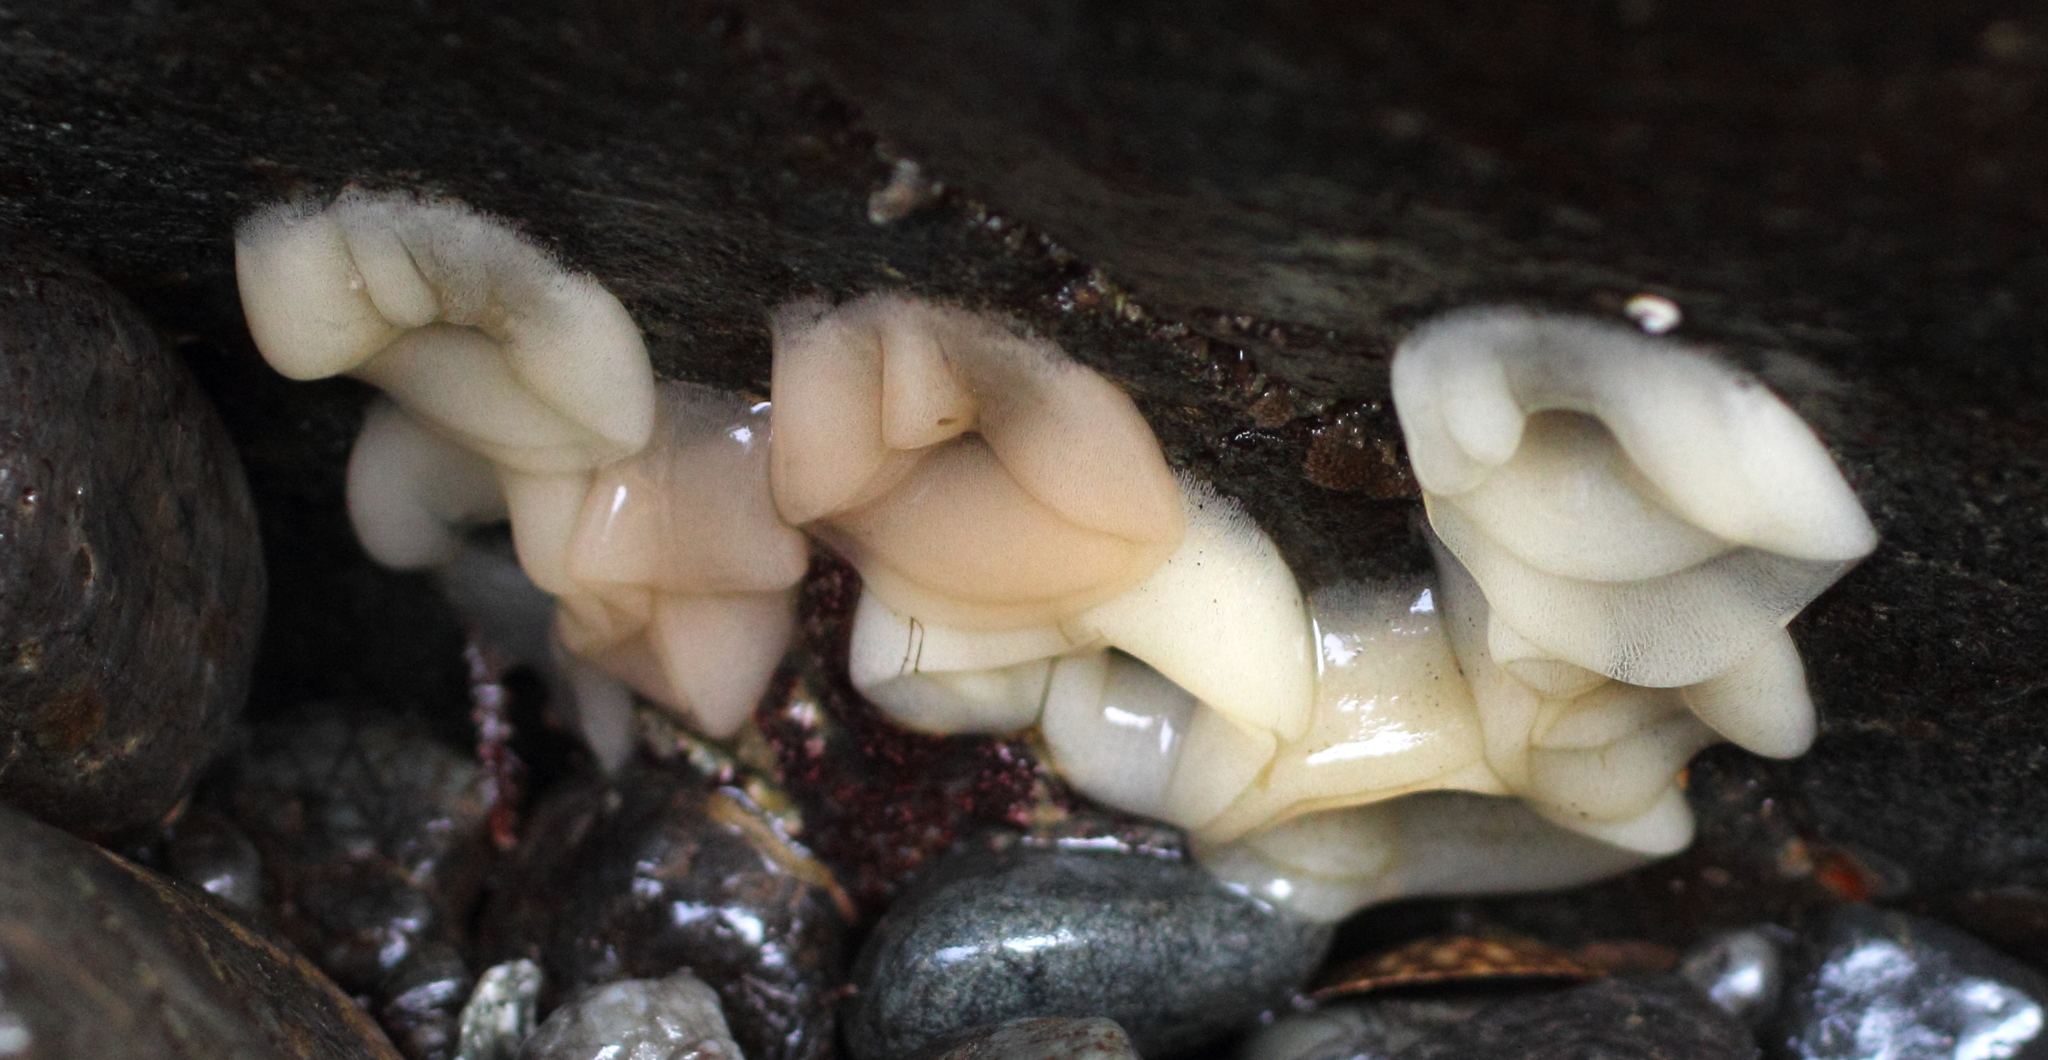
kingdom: Animalia
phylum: Mollusca
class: Gastropoda
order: Nudibranchia
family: Onchidorididae
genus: Acanthodoris
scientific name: Acanthodoris nanaimoensis
